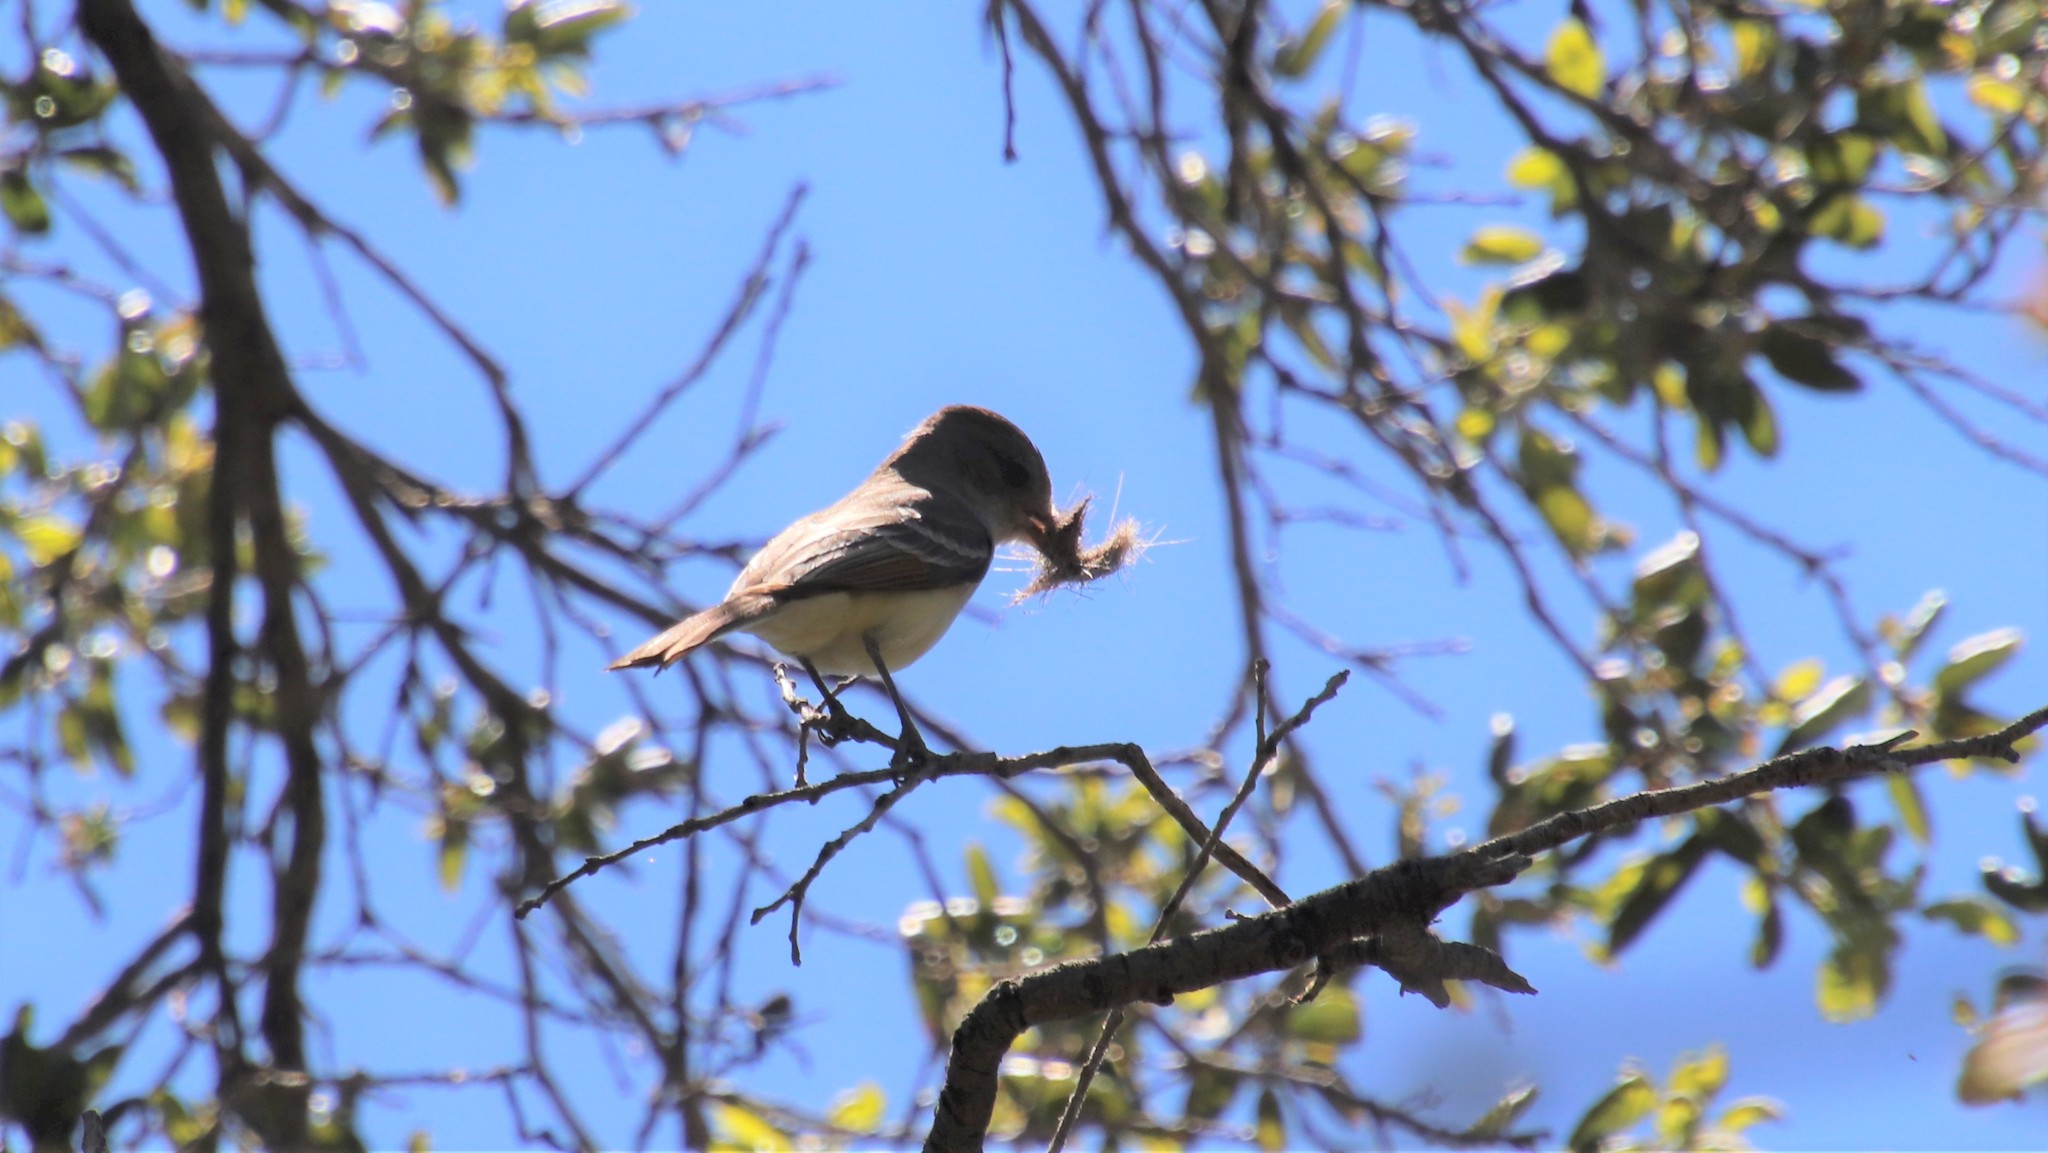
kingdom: Animalia
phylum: Chordata
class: Aves
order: Passeriformes
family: Tyrannidae
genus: Myiarchus
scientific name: Myiarchus cinerascens
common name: Ash-throated flycatcher
